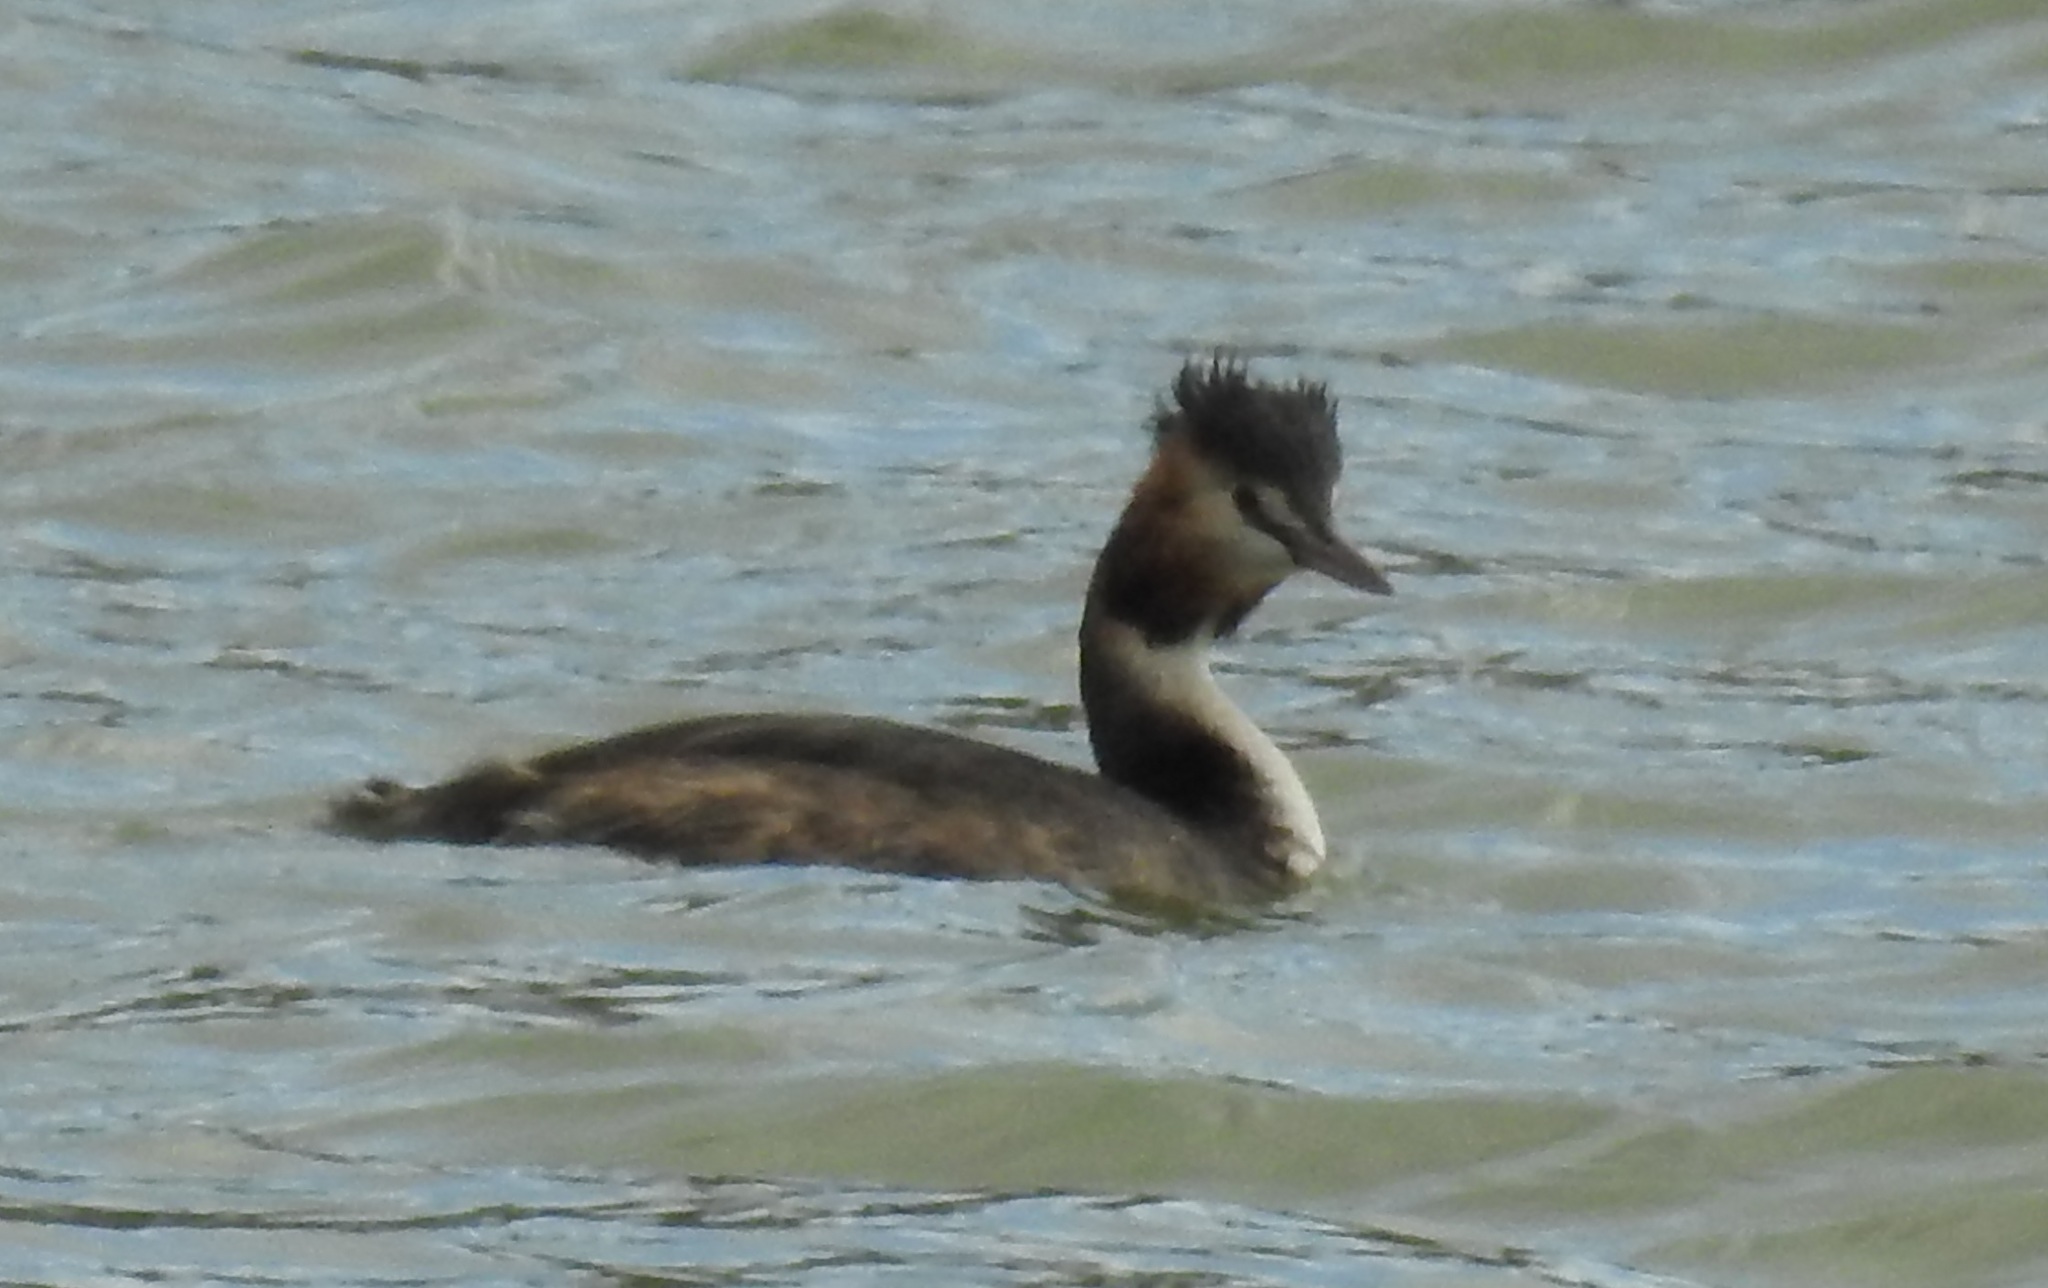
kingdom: Animalia
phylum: Chordata
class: Aves
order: Podicipediformes
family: Podicipedidae
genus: Podiceps
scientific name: Podiceps cristatus
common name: Great crested grebe
